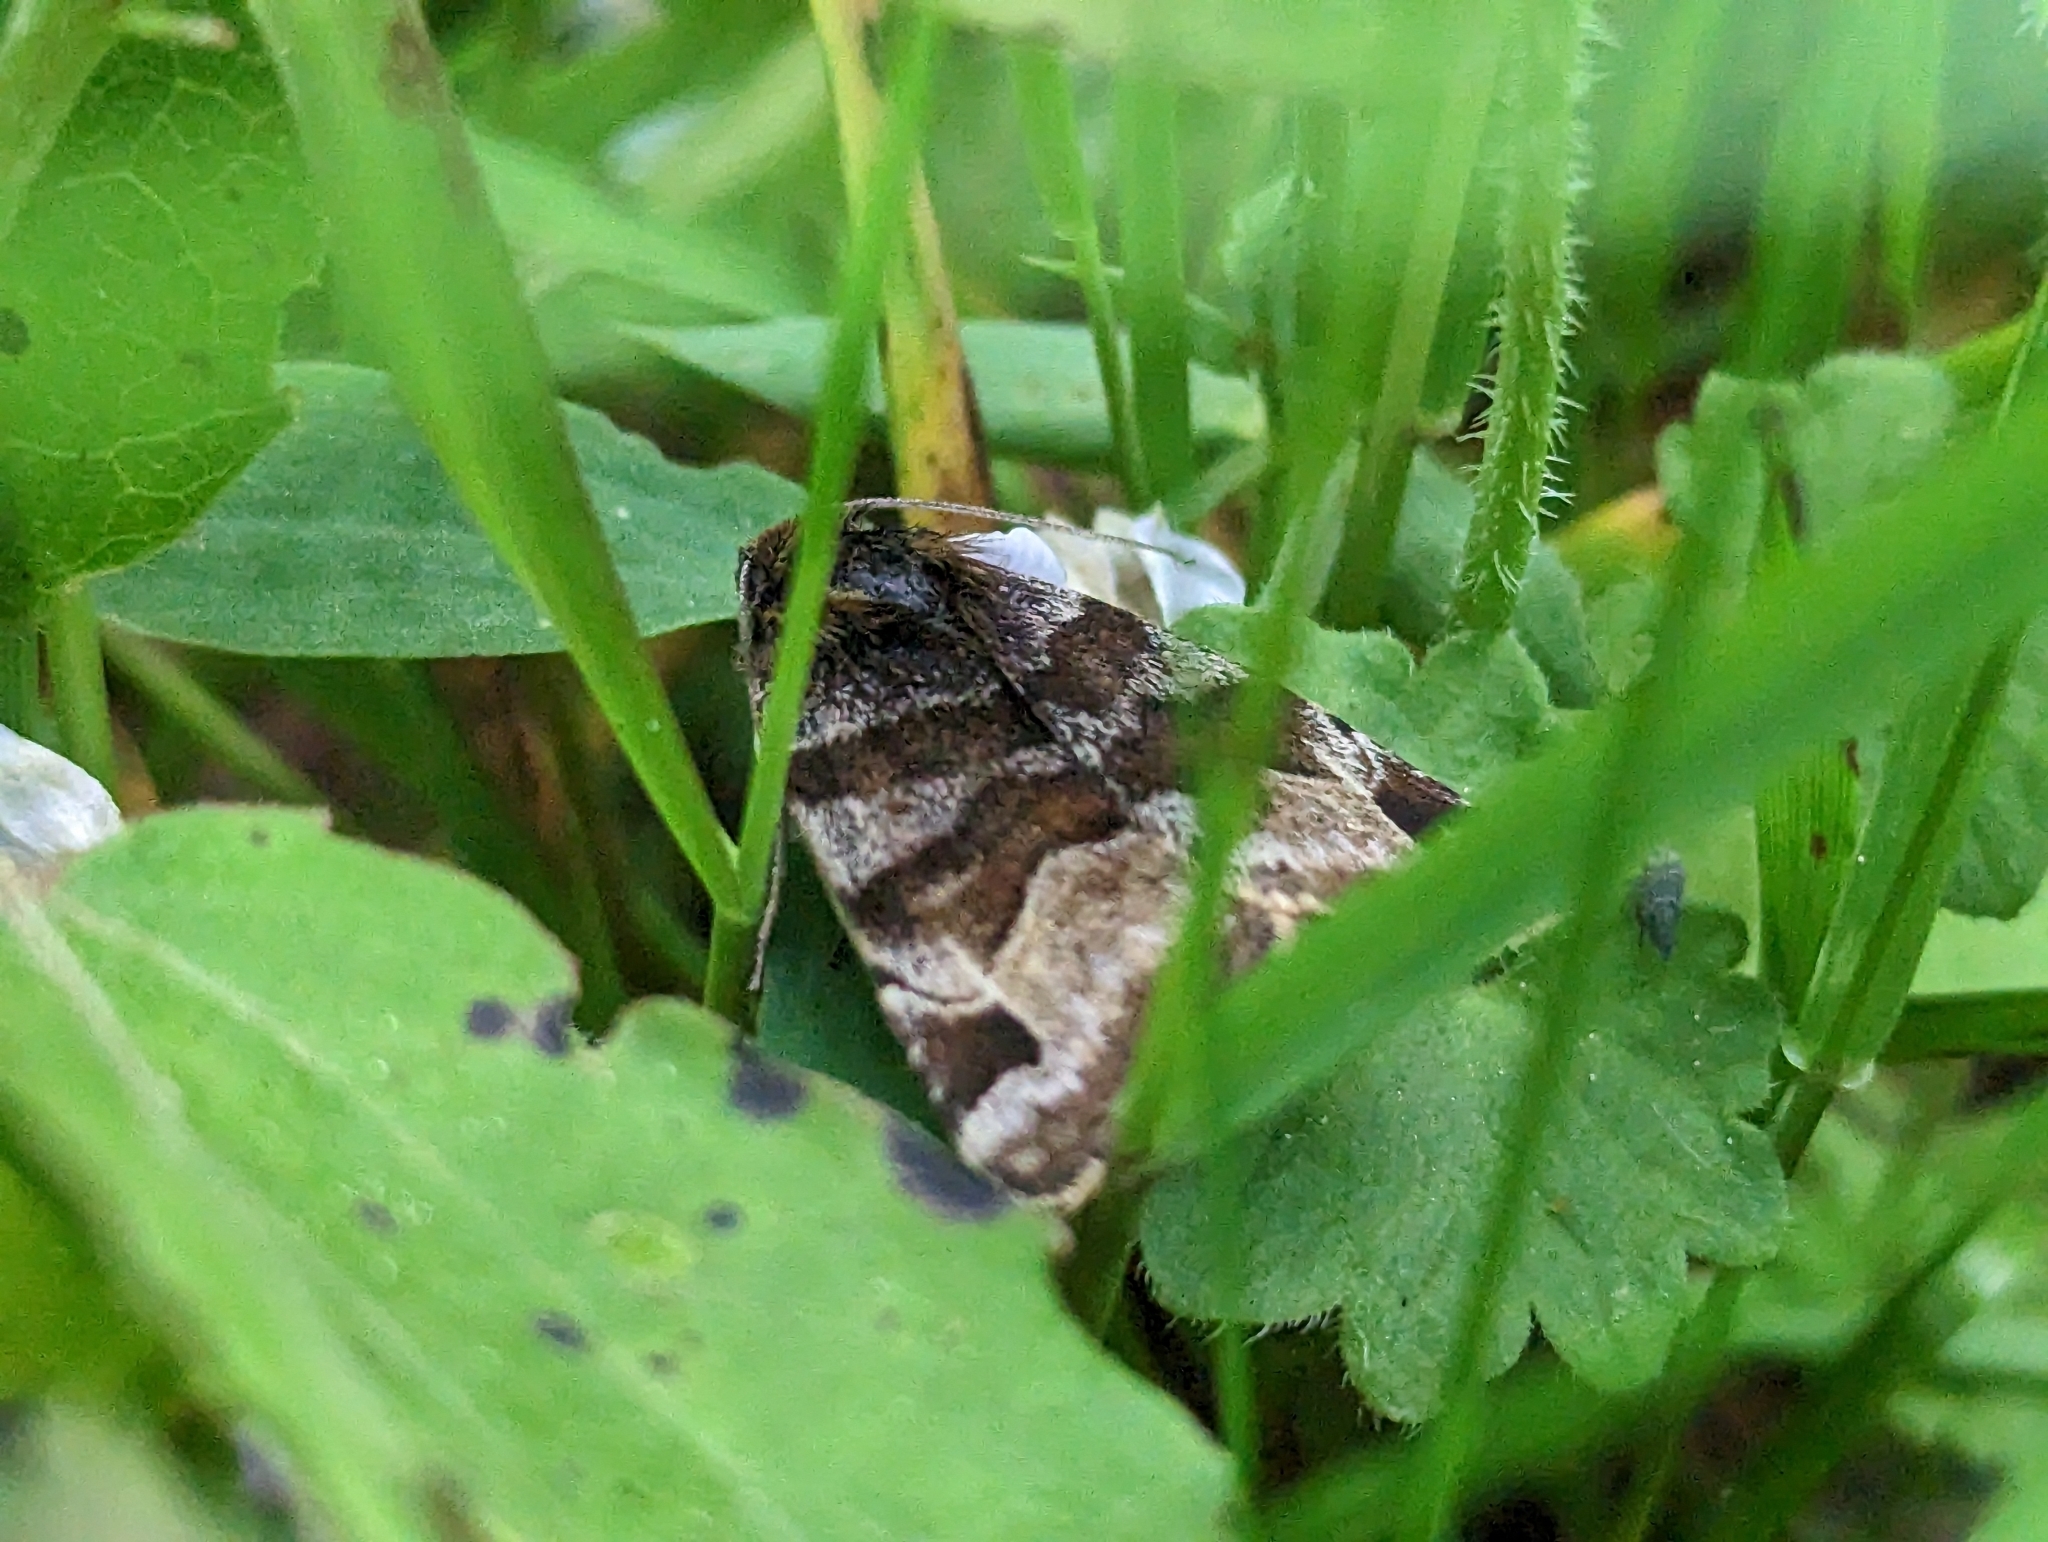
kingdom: Animalia
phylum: Arthropoda
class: Insecta
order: Lepidoptera
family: Erebidae
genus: Euclidia
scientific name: Euclidia glyphica
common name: Burnet companion
